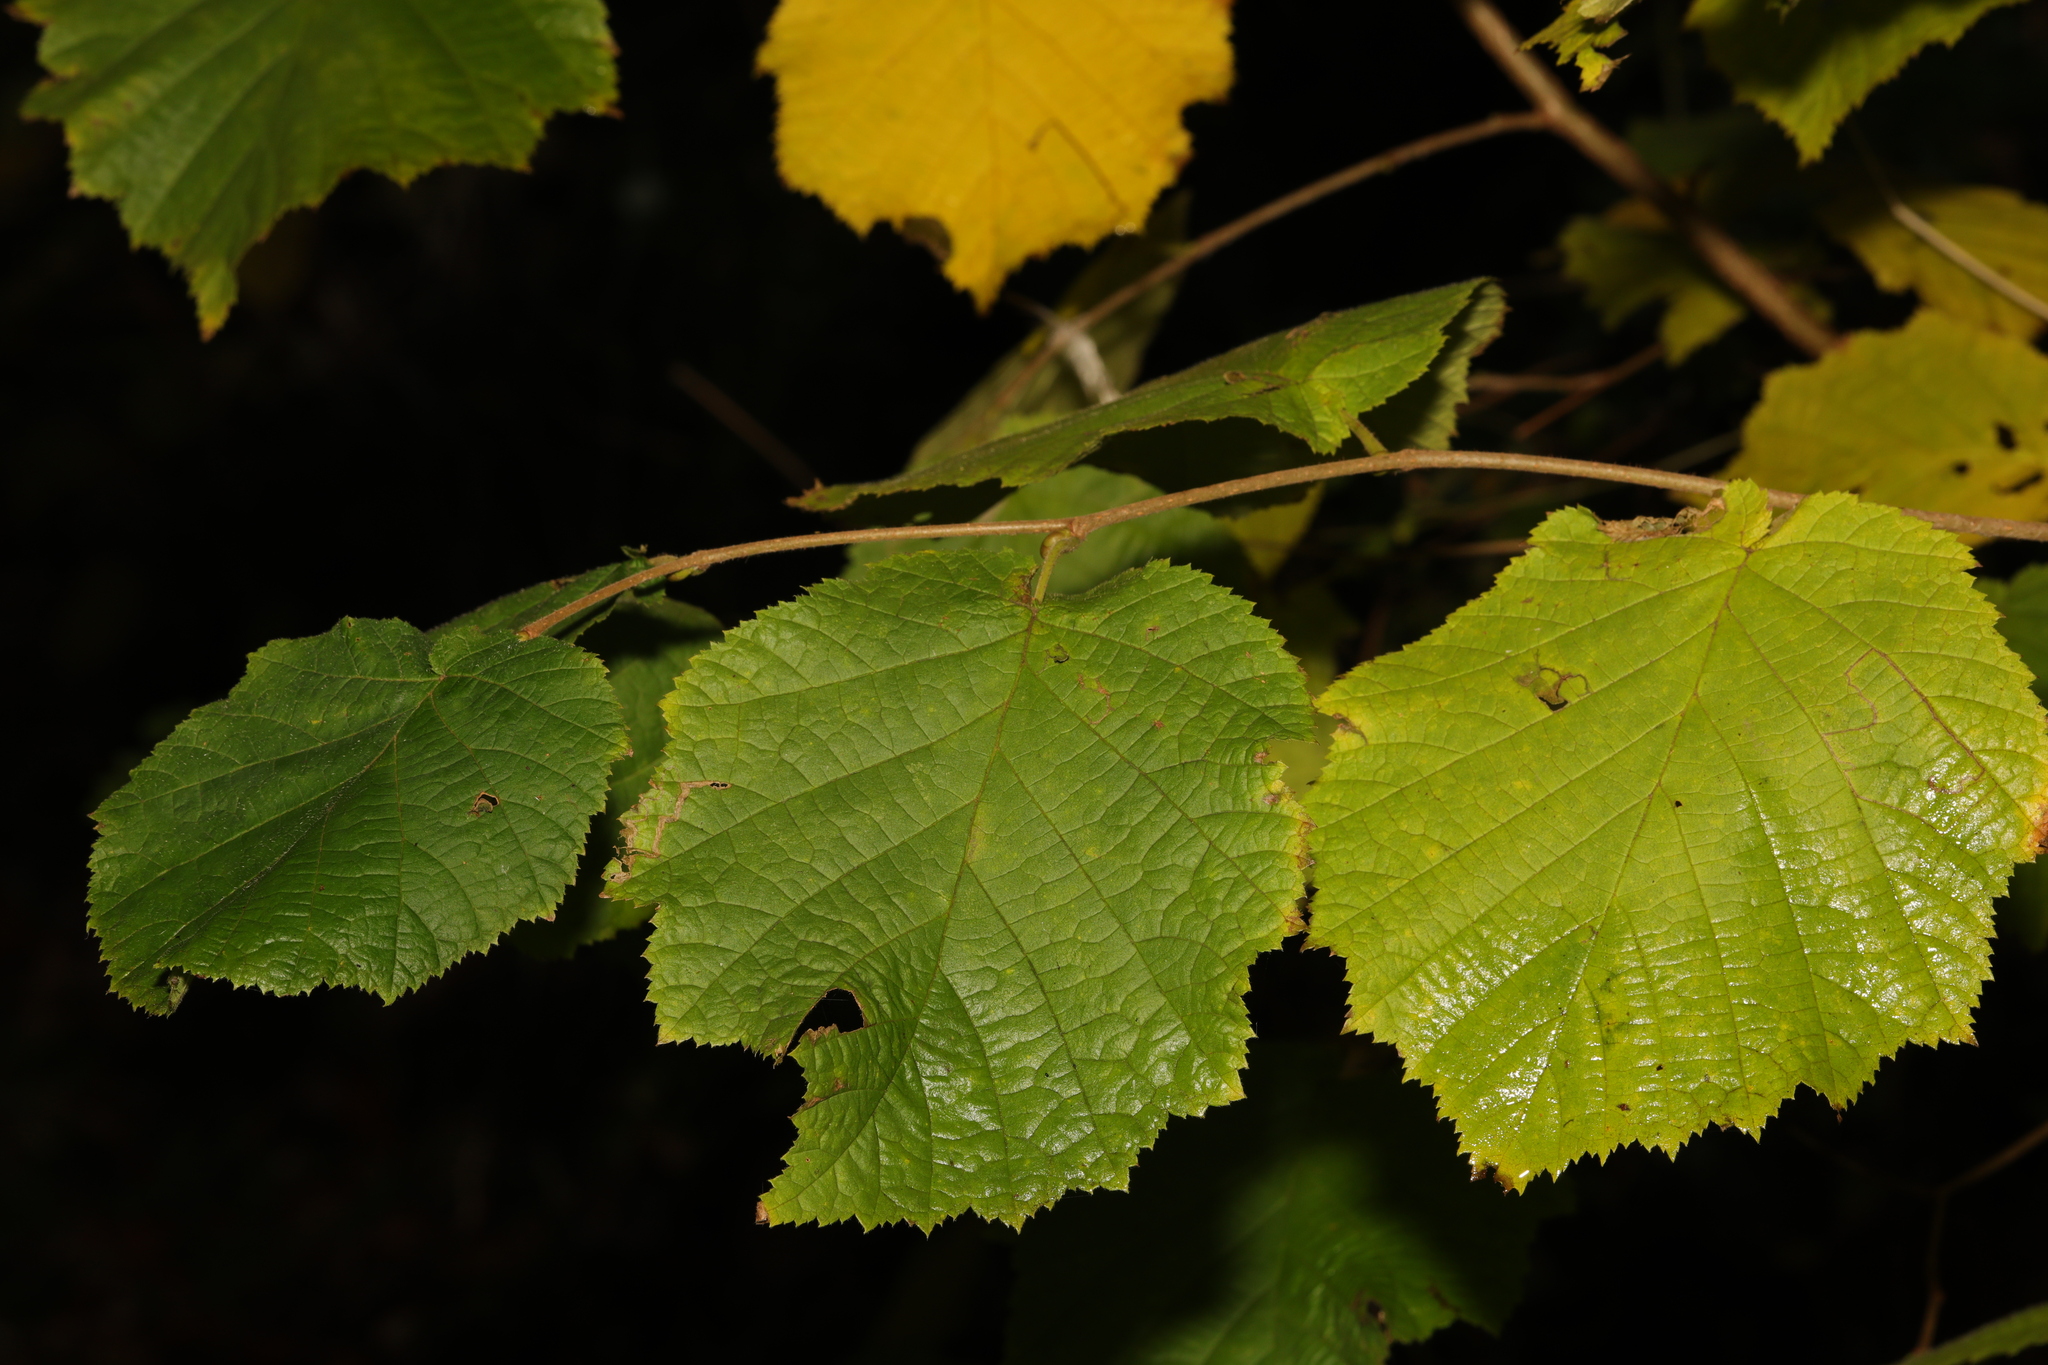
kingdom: Plantae
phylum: Tracheophyta
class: Magnoliopsida
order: Fagales
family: Betulaceae
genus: Corylus
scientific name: Corylus avellana
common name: European hazel
